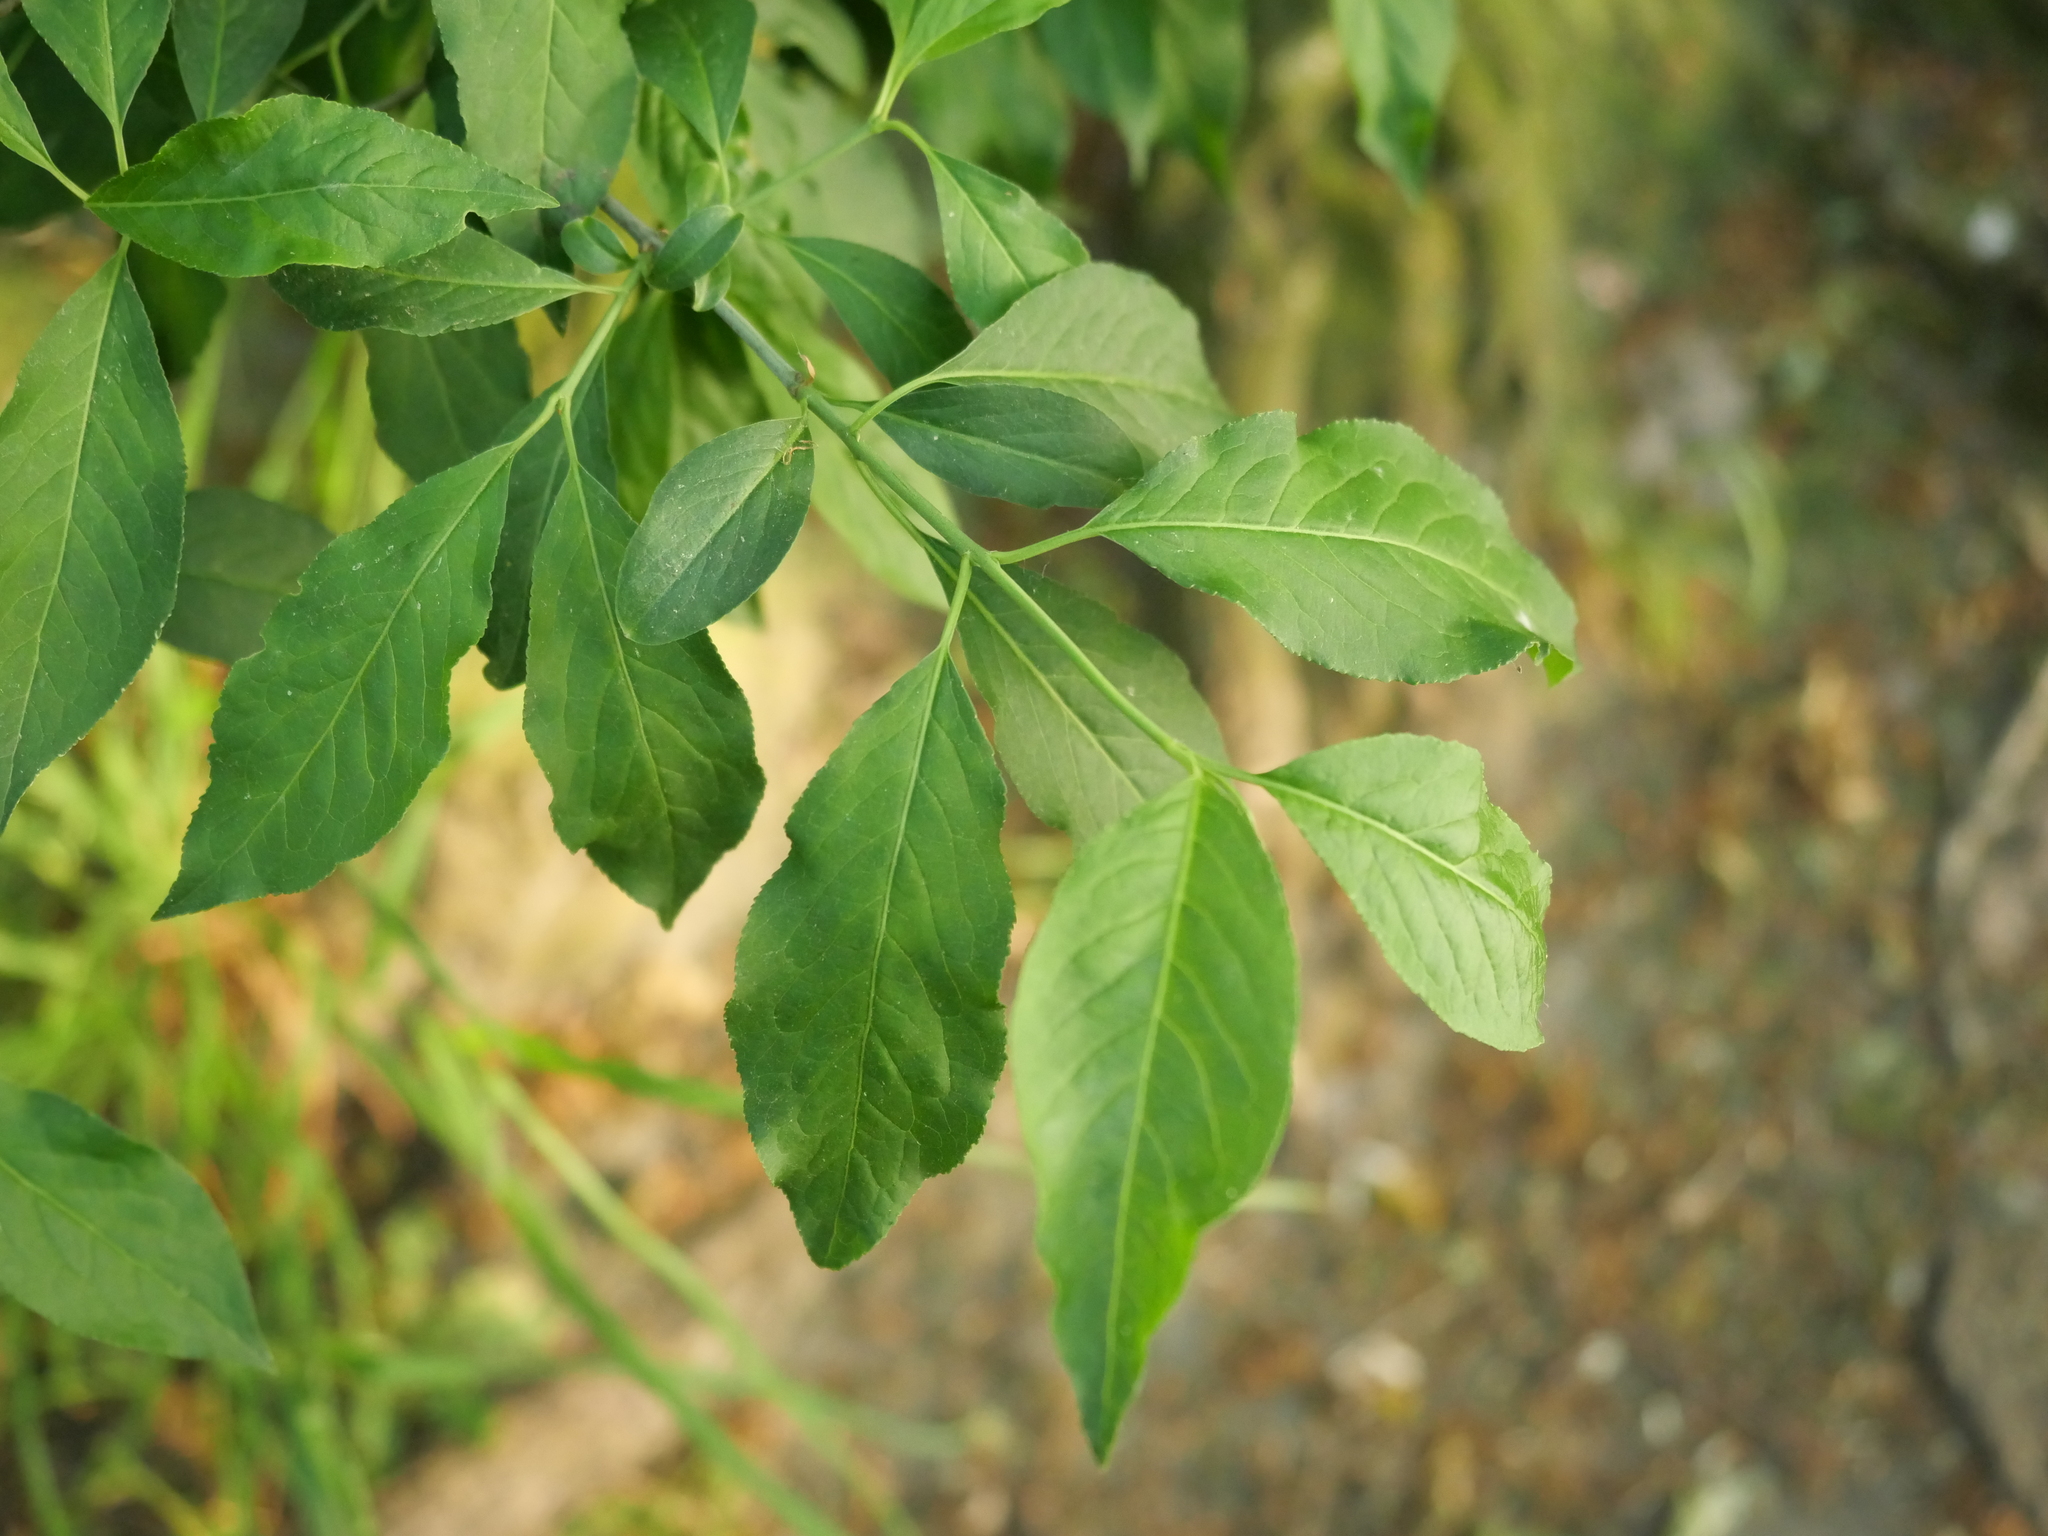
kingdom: Plantae
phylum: Tracheophyta
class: Magnoliopsida
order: Celastrales
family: Celastraceae
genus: Euonymus
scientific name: Euonymus europaeus
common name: Spindle
